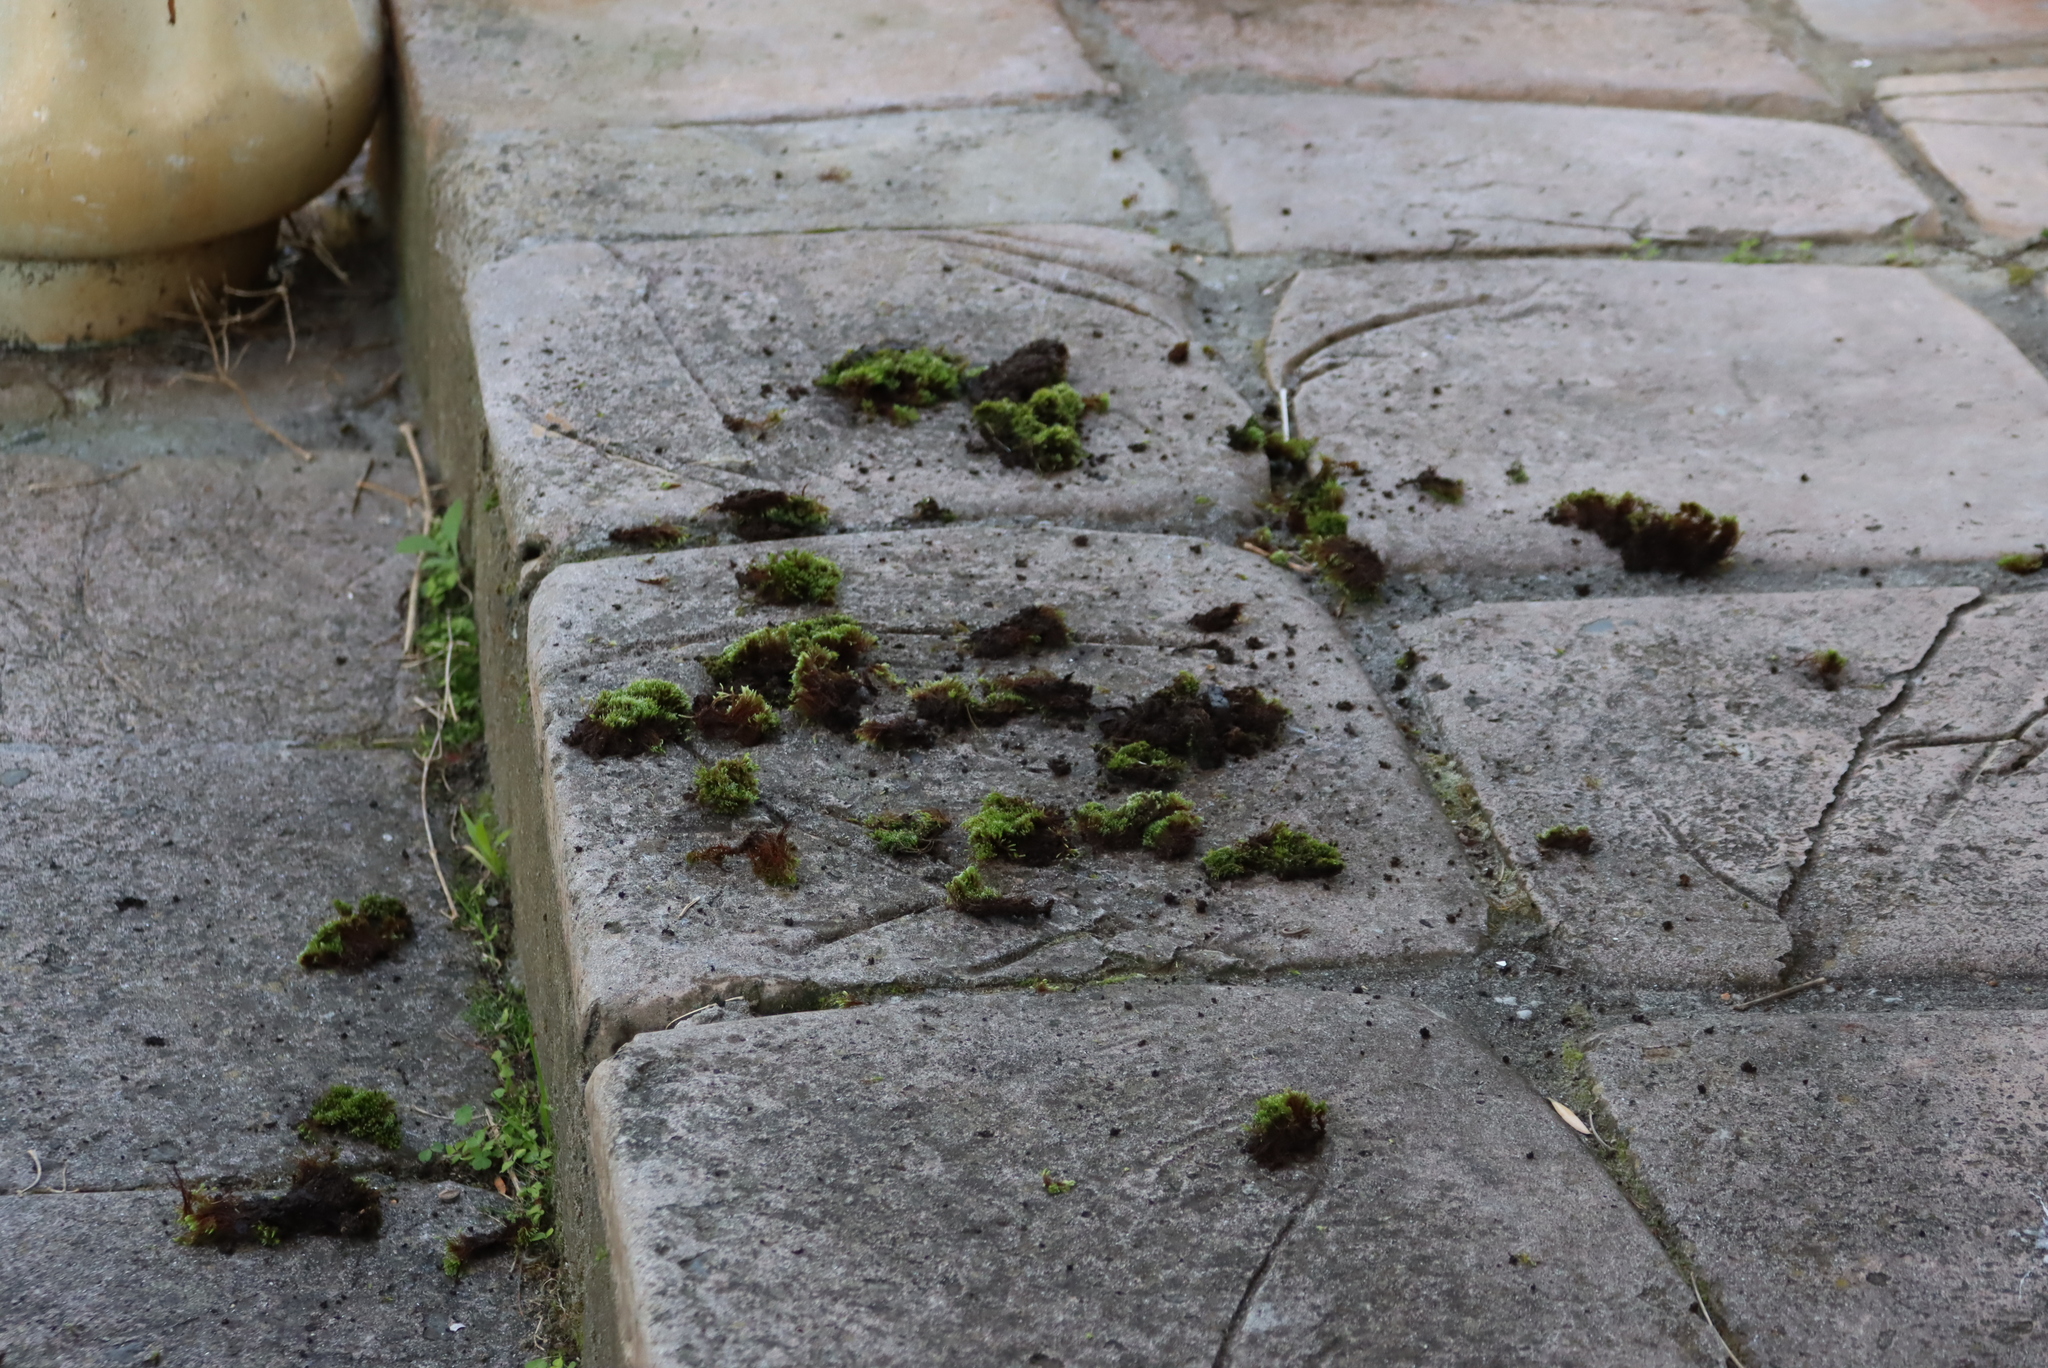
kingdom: Animalia
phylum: Chordata
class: Aves
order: Passeriformes
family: Turdidae
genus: Turdus
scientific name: Turdus olivaceus
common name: Olive thrush
